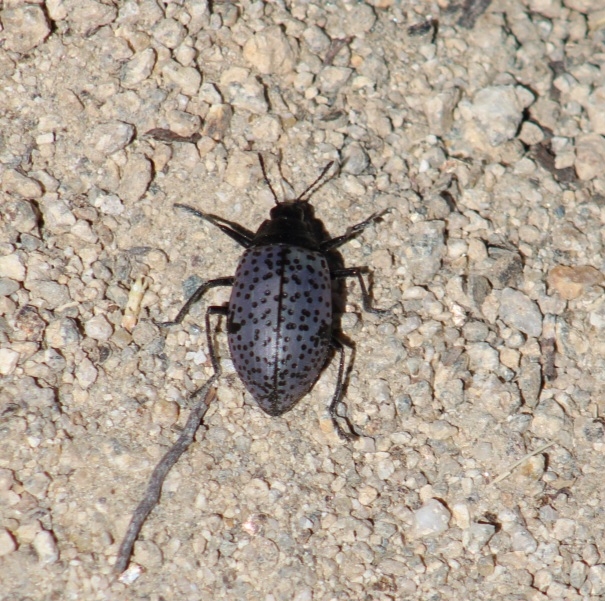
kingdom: Animalia
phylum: Arthropoda
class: Insecta
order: Coleoptera
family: Erotylidae
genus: Gibbifer
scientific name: Gibbifer californicus
